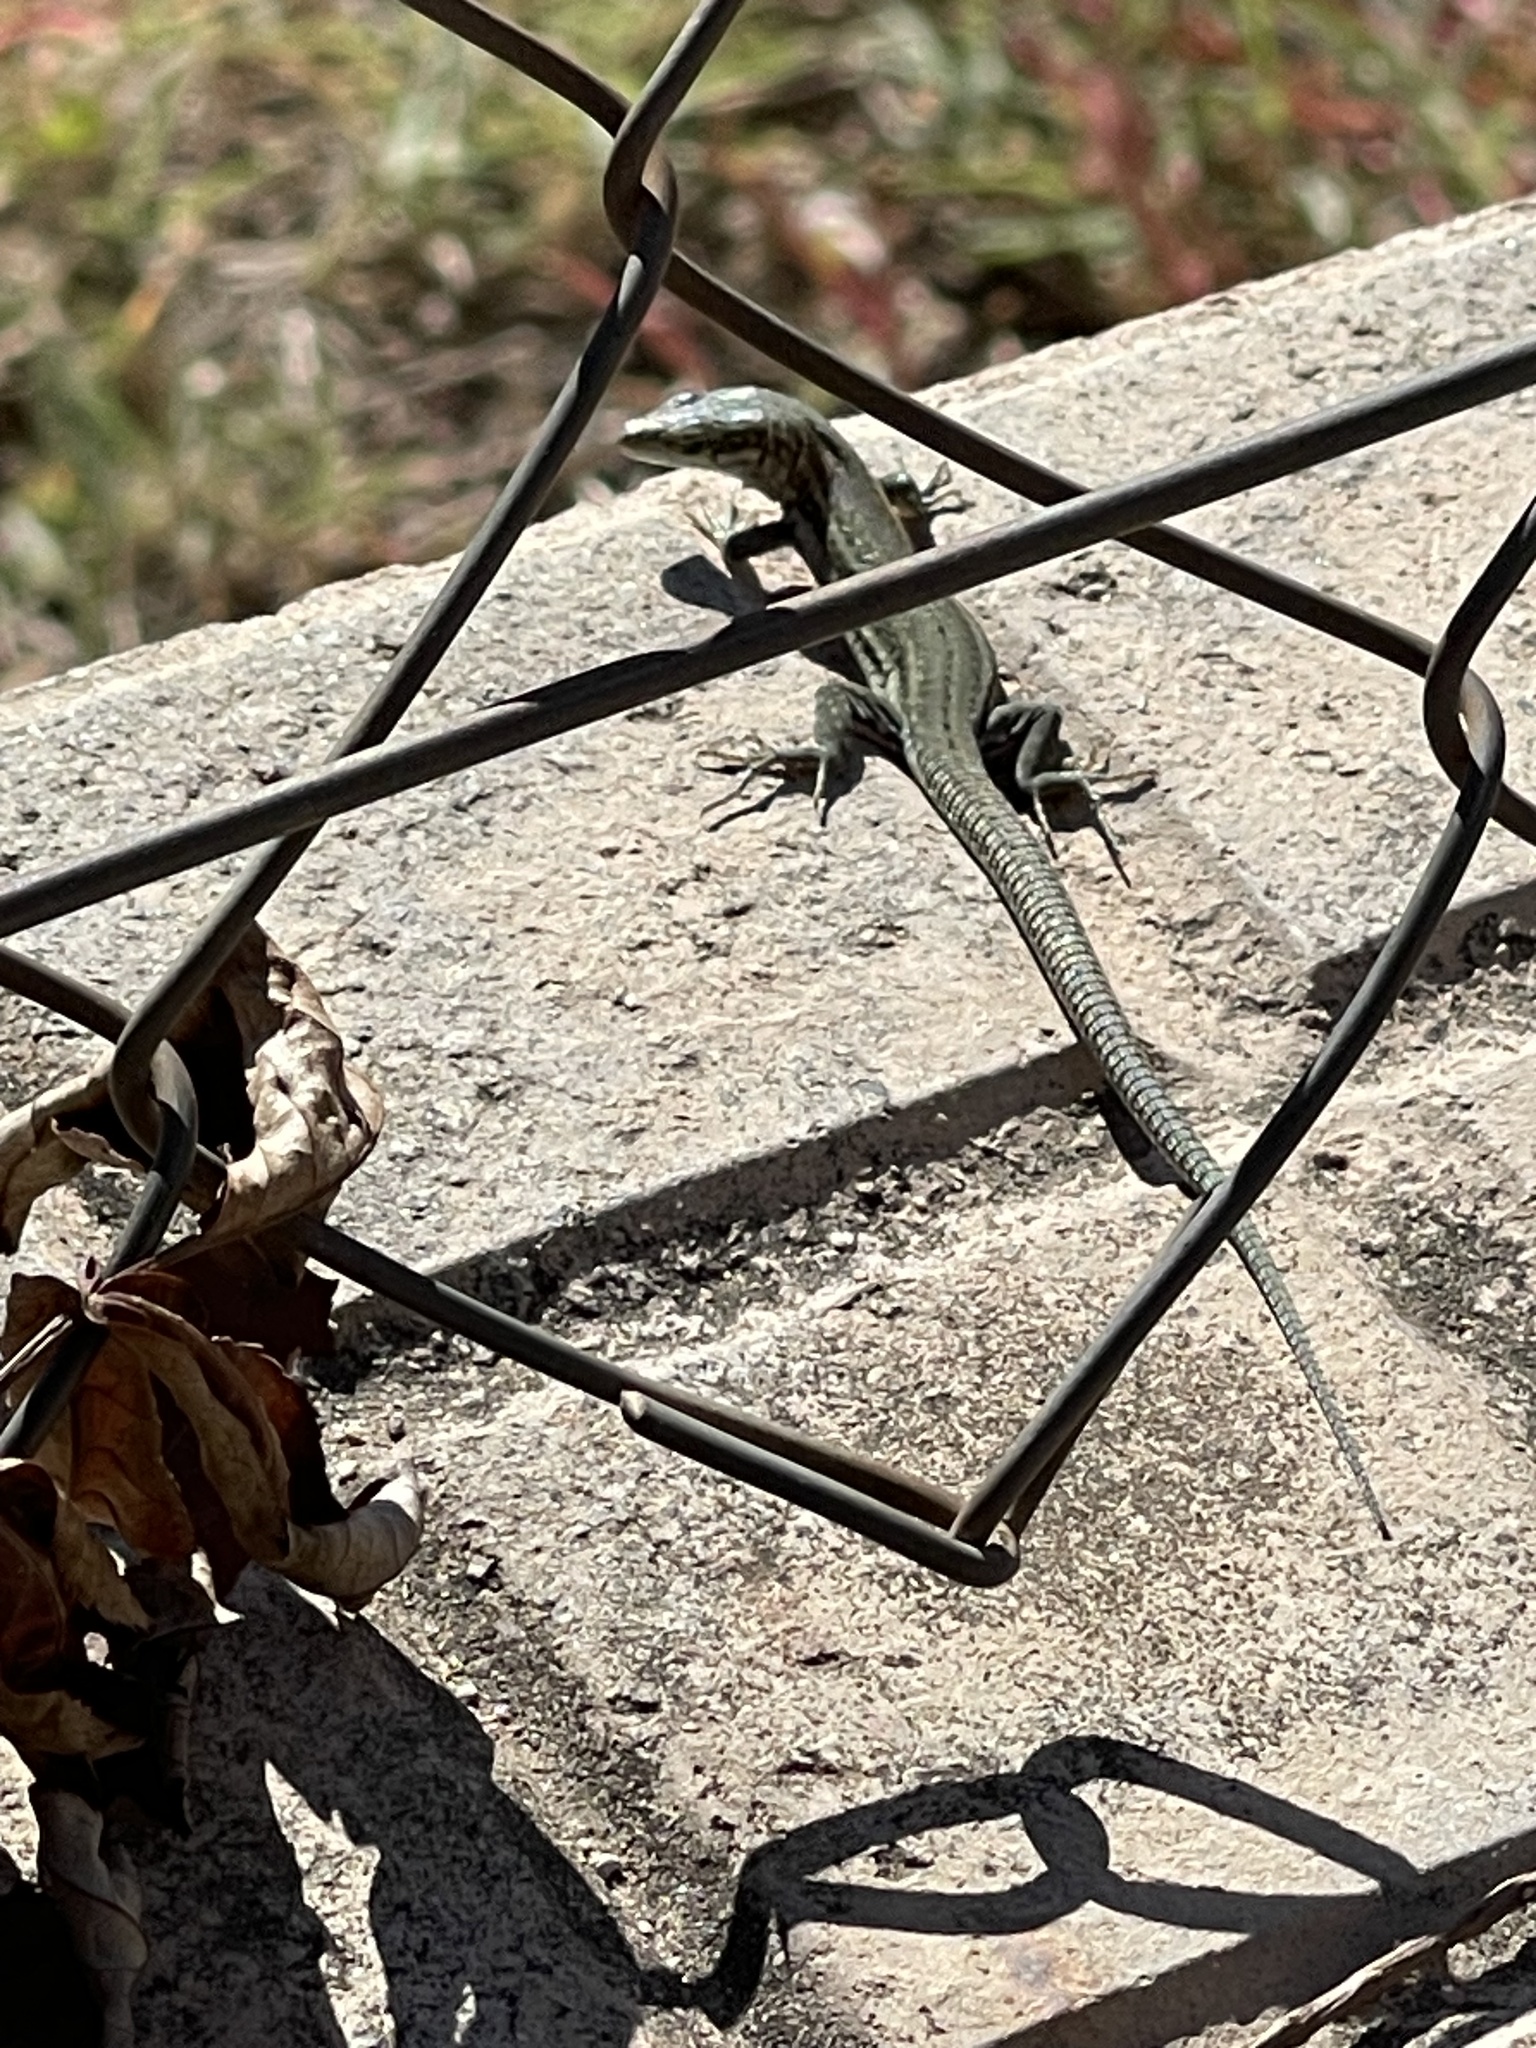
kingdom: Animalia
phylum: Chordata
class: Squamata
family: Lacertidae
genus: Podarcis
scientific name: Podarcis liolepis
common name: Catalonian wall lizard
